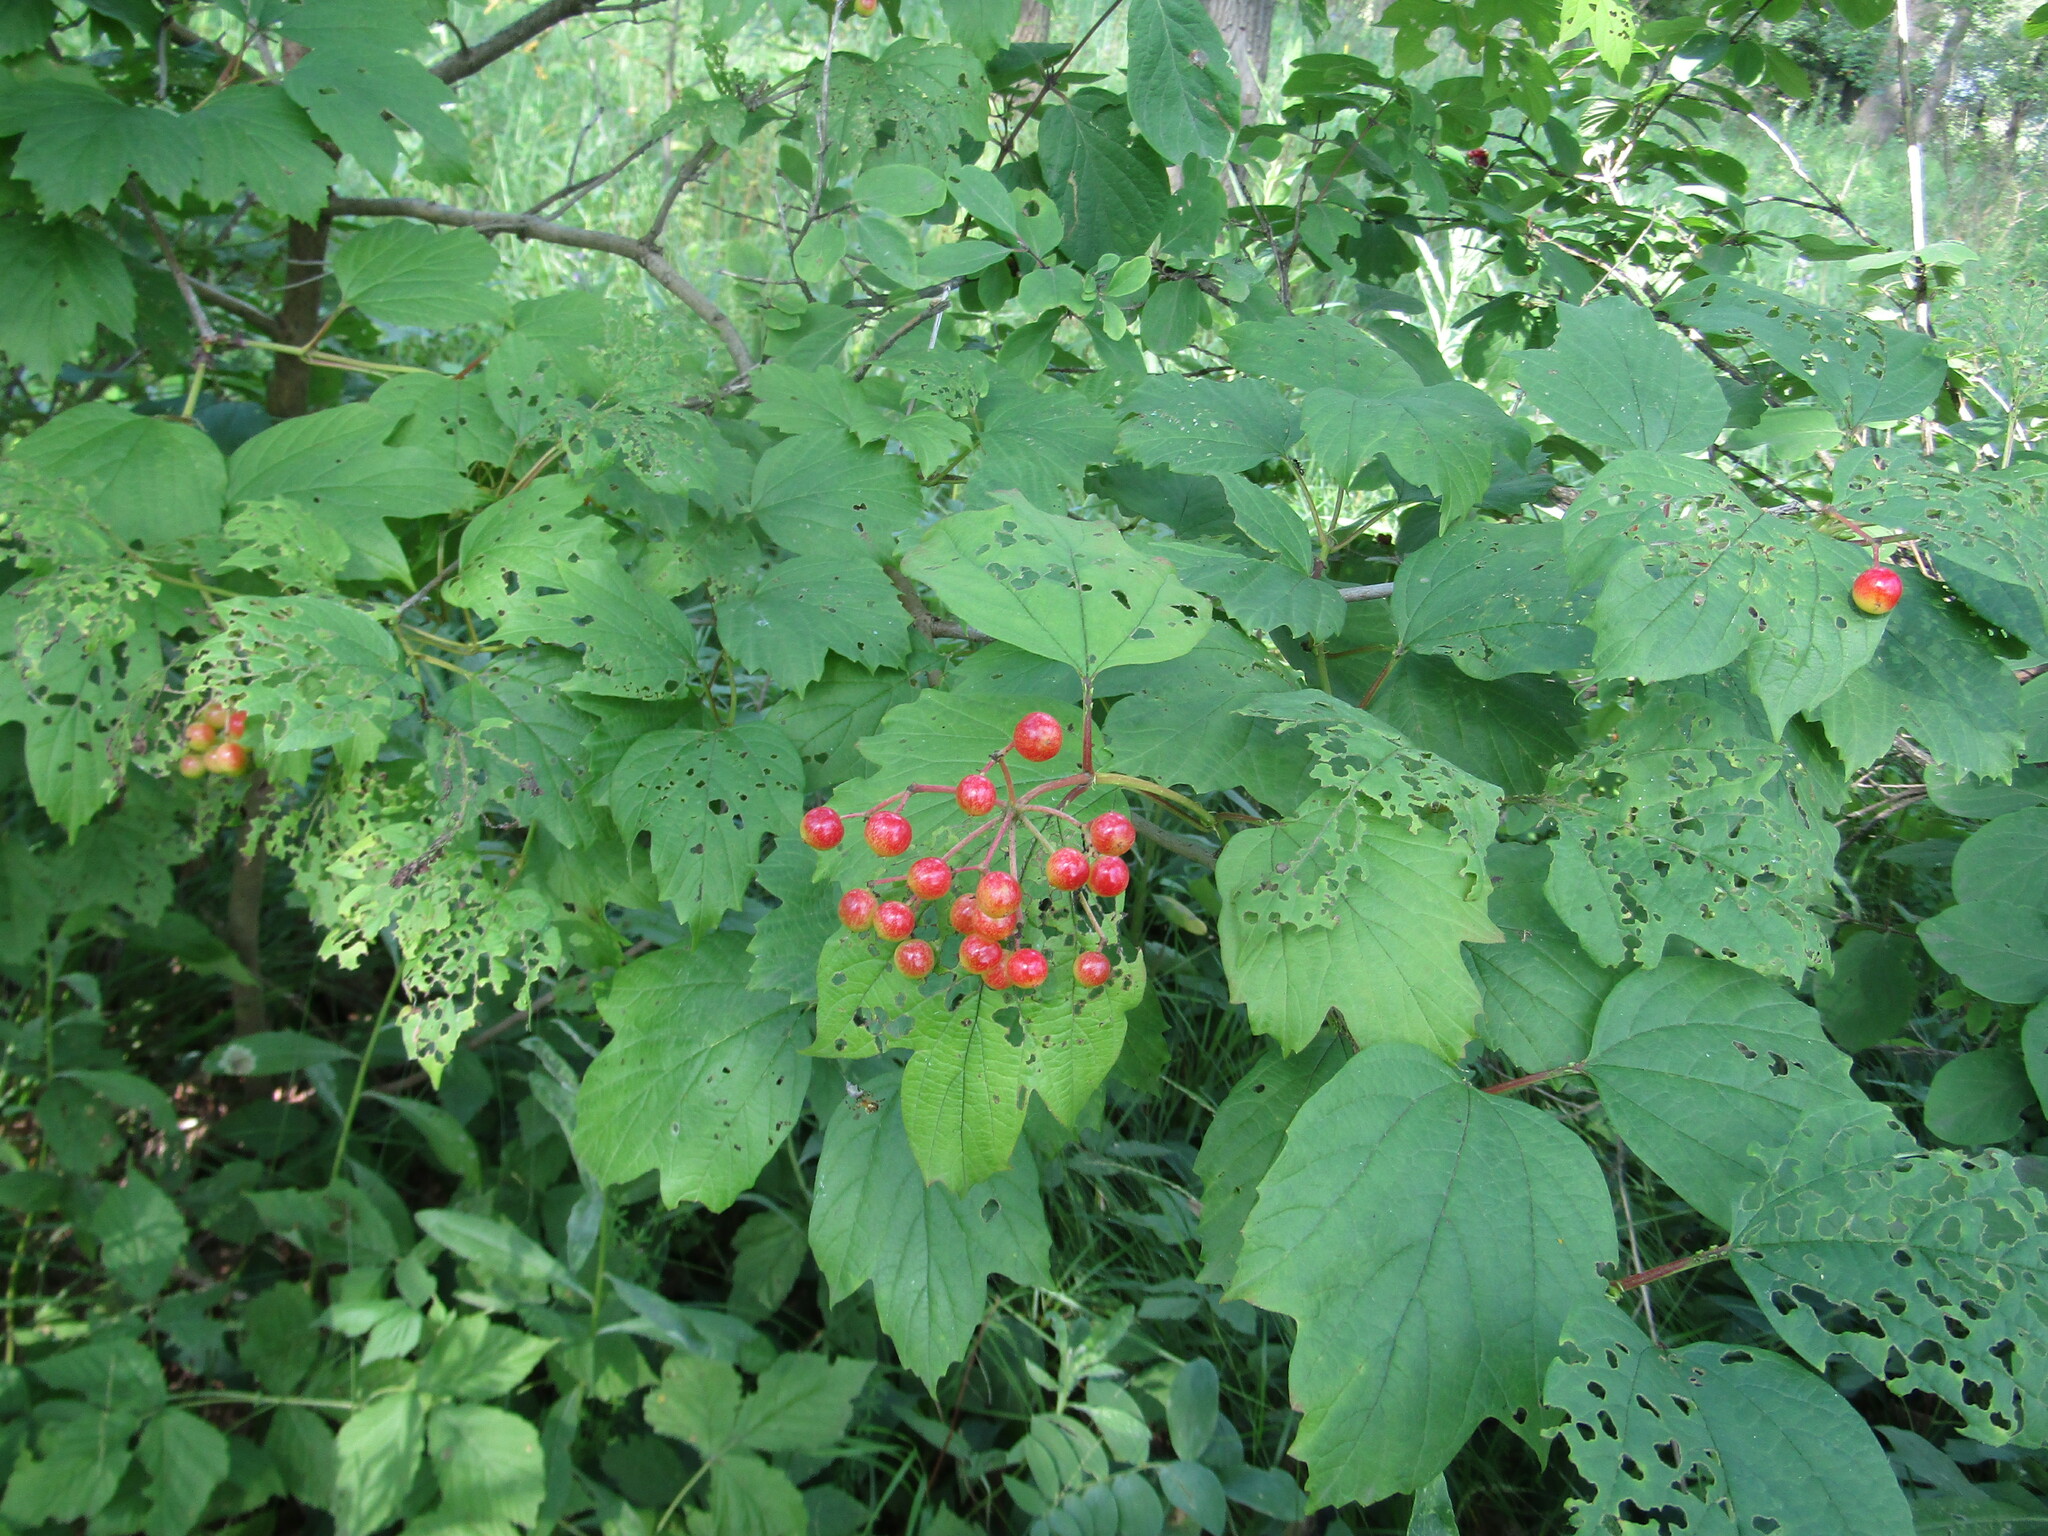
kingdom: Plantae
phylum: Tracheophyta
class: Magnoliopsida
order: Dipsacales
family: Viburnaceae
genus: Viburnum
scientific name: Viburnum opulus
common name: Guelder-rose
